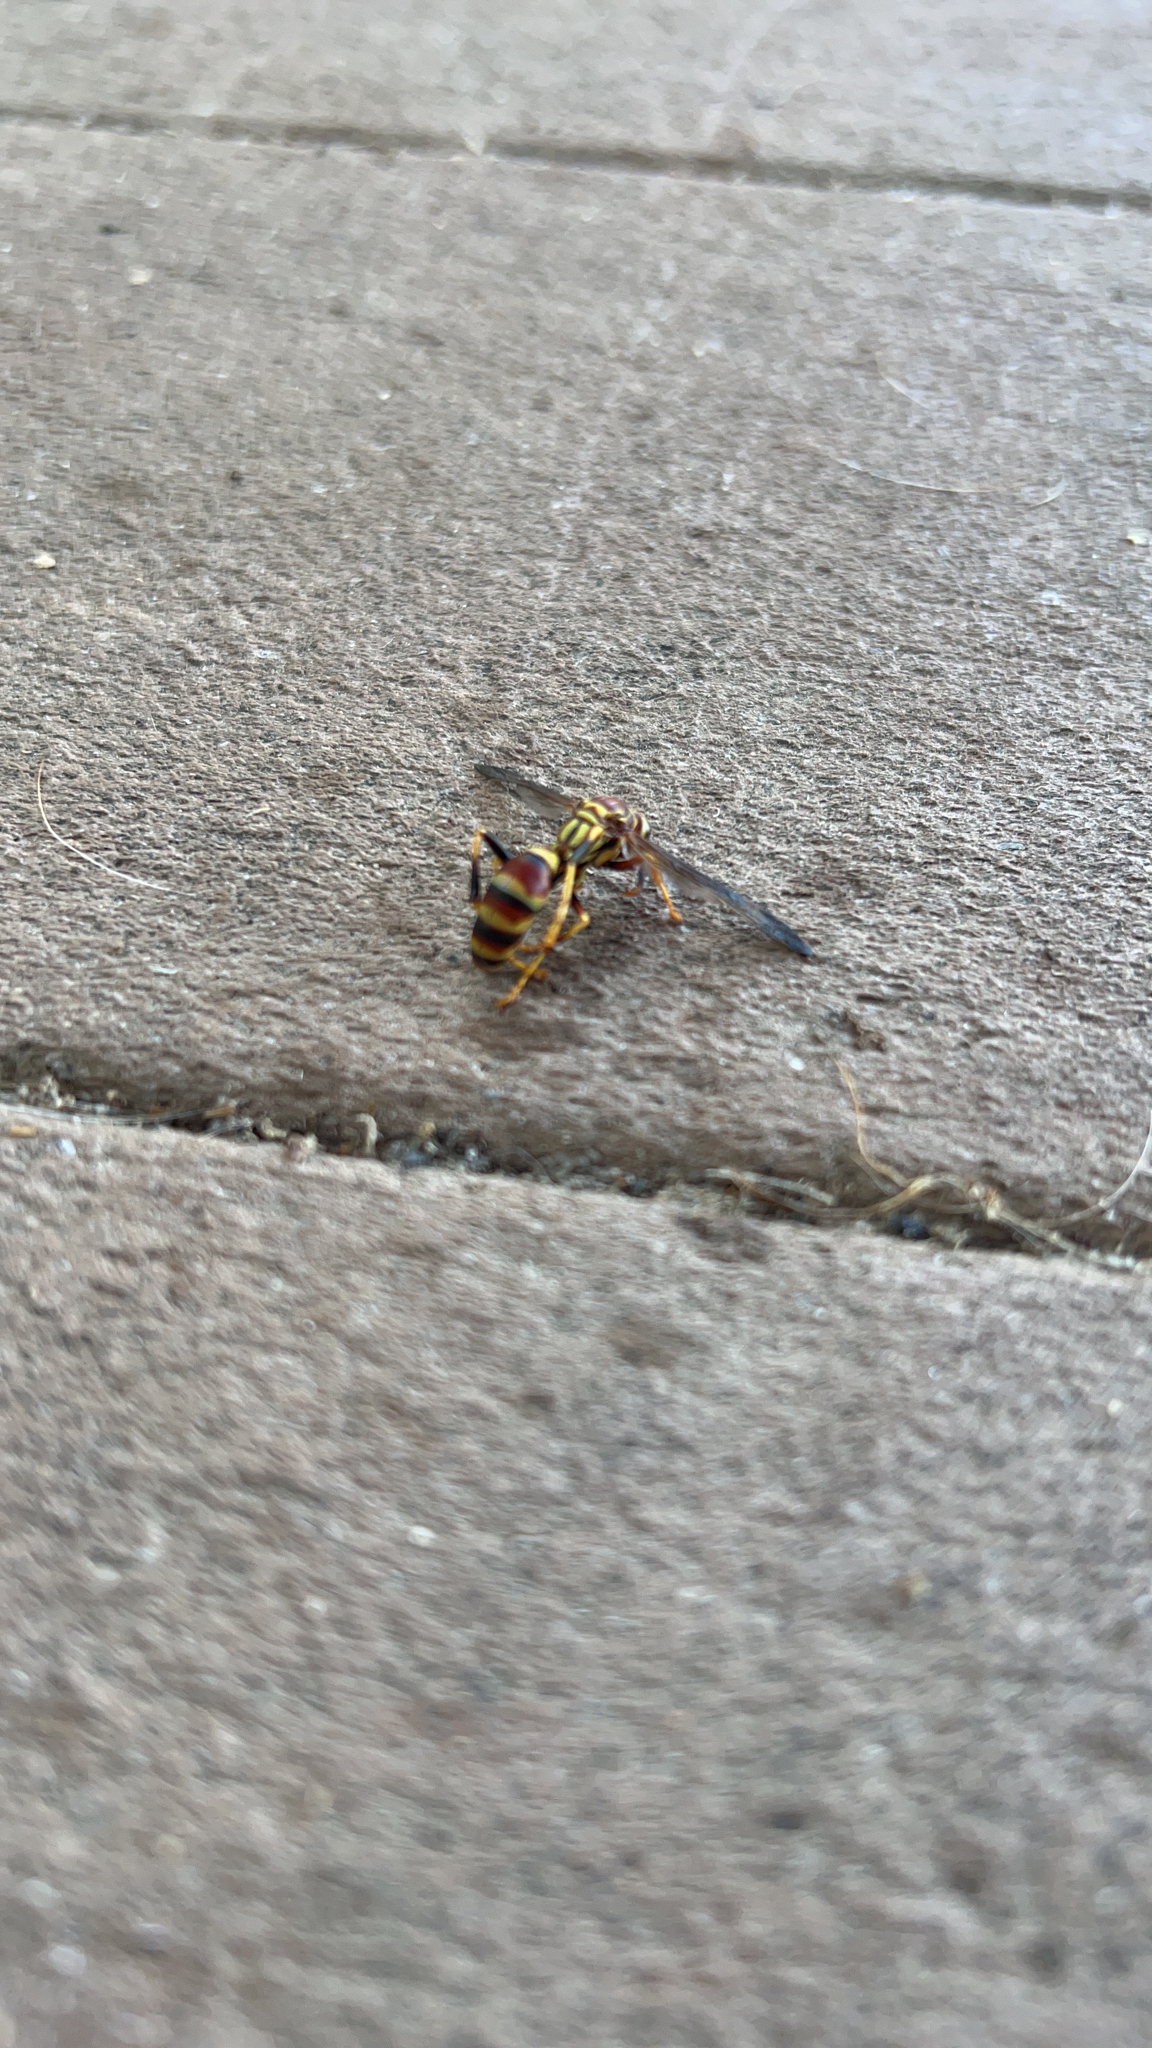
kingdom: Animalia
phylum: Arthropoda
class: Insecta
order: Hymenoptera
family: Eumenidae
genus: Polistes
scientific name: Polistes exclamans
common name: Paper wasp
